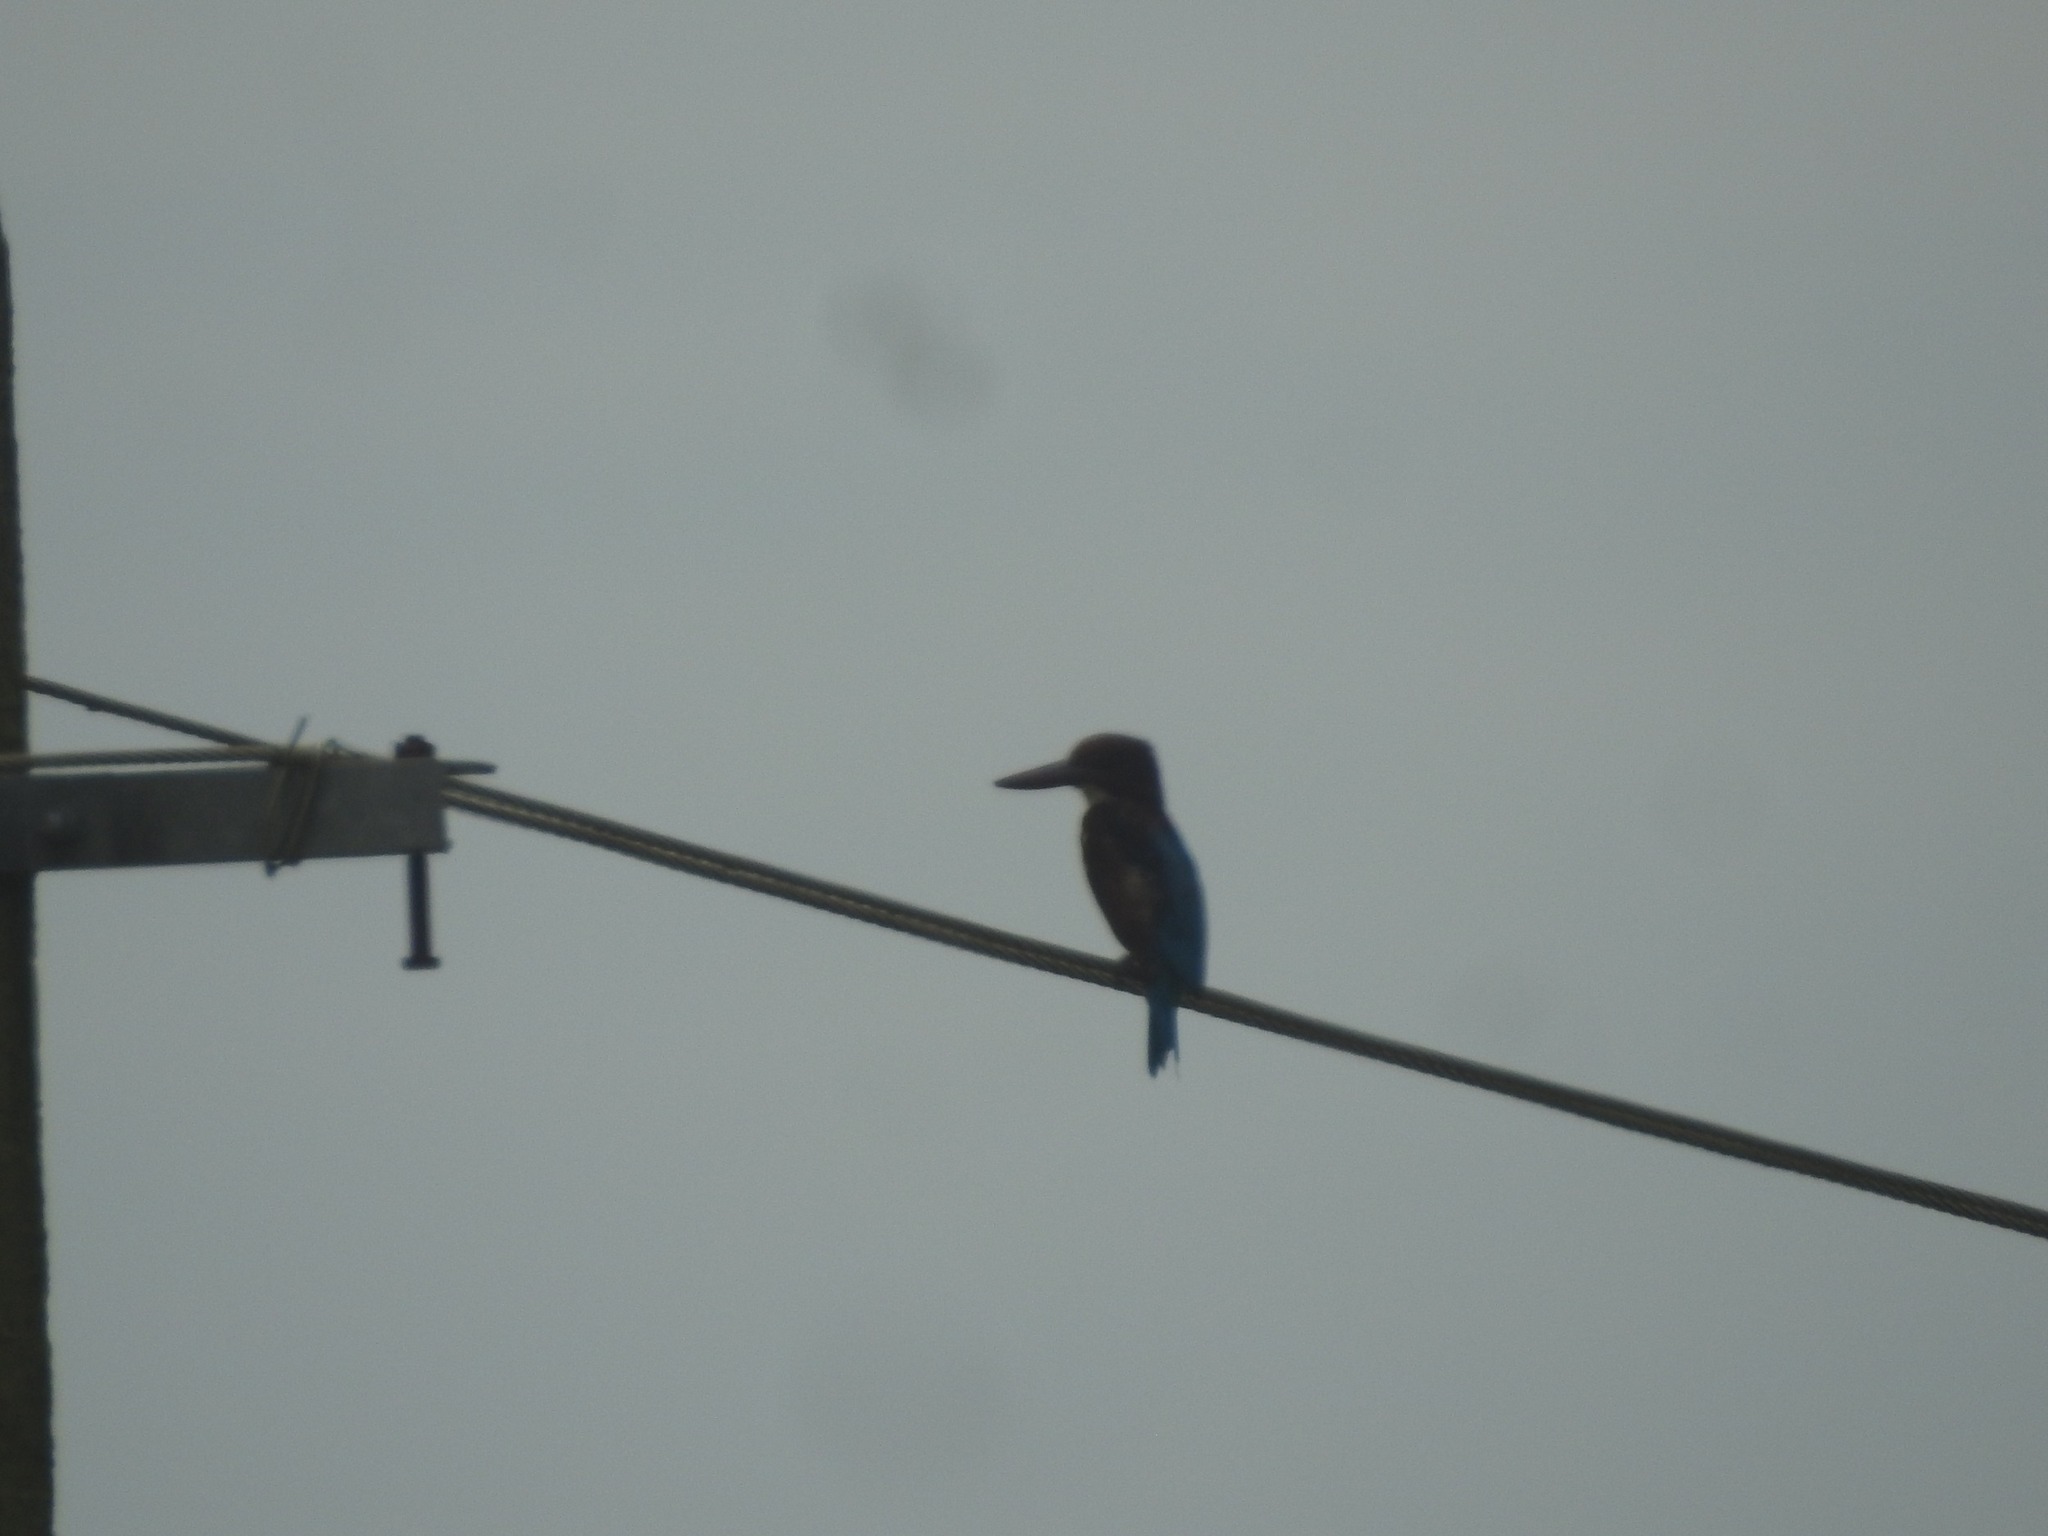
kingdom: Animalia
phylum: Chordata
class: Aves
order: Coraciiformes
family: Alcedinidae
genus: Halcyon
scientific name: Halcyon smyrnensis
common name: White-throated kingfisher
